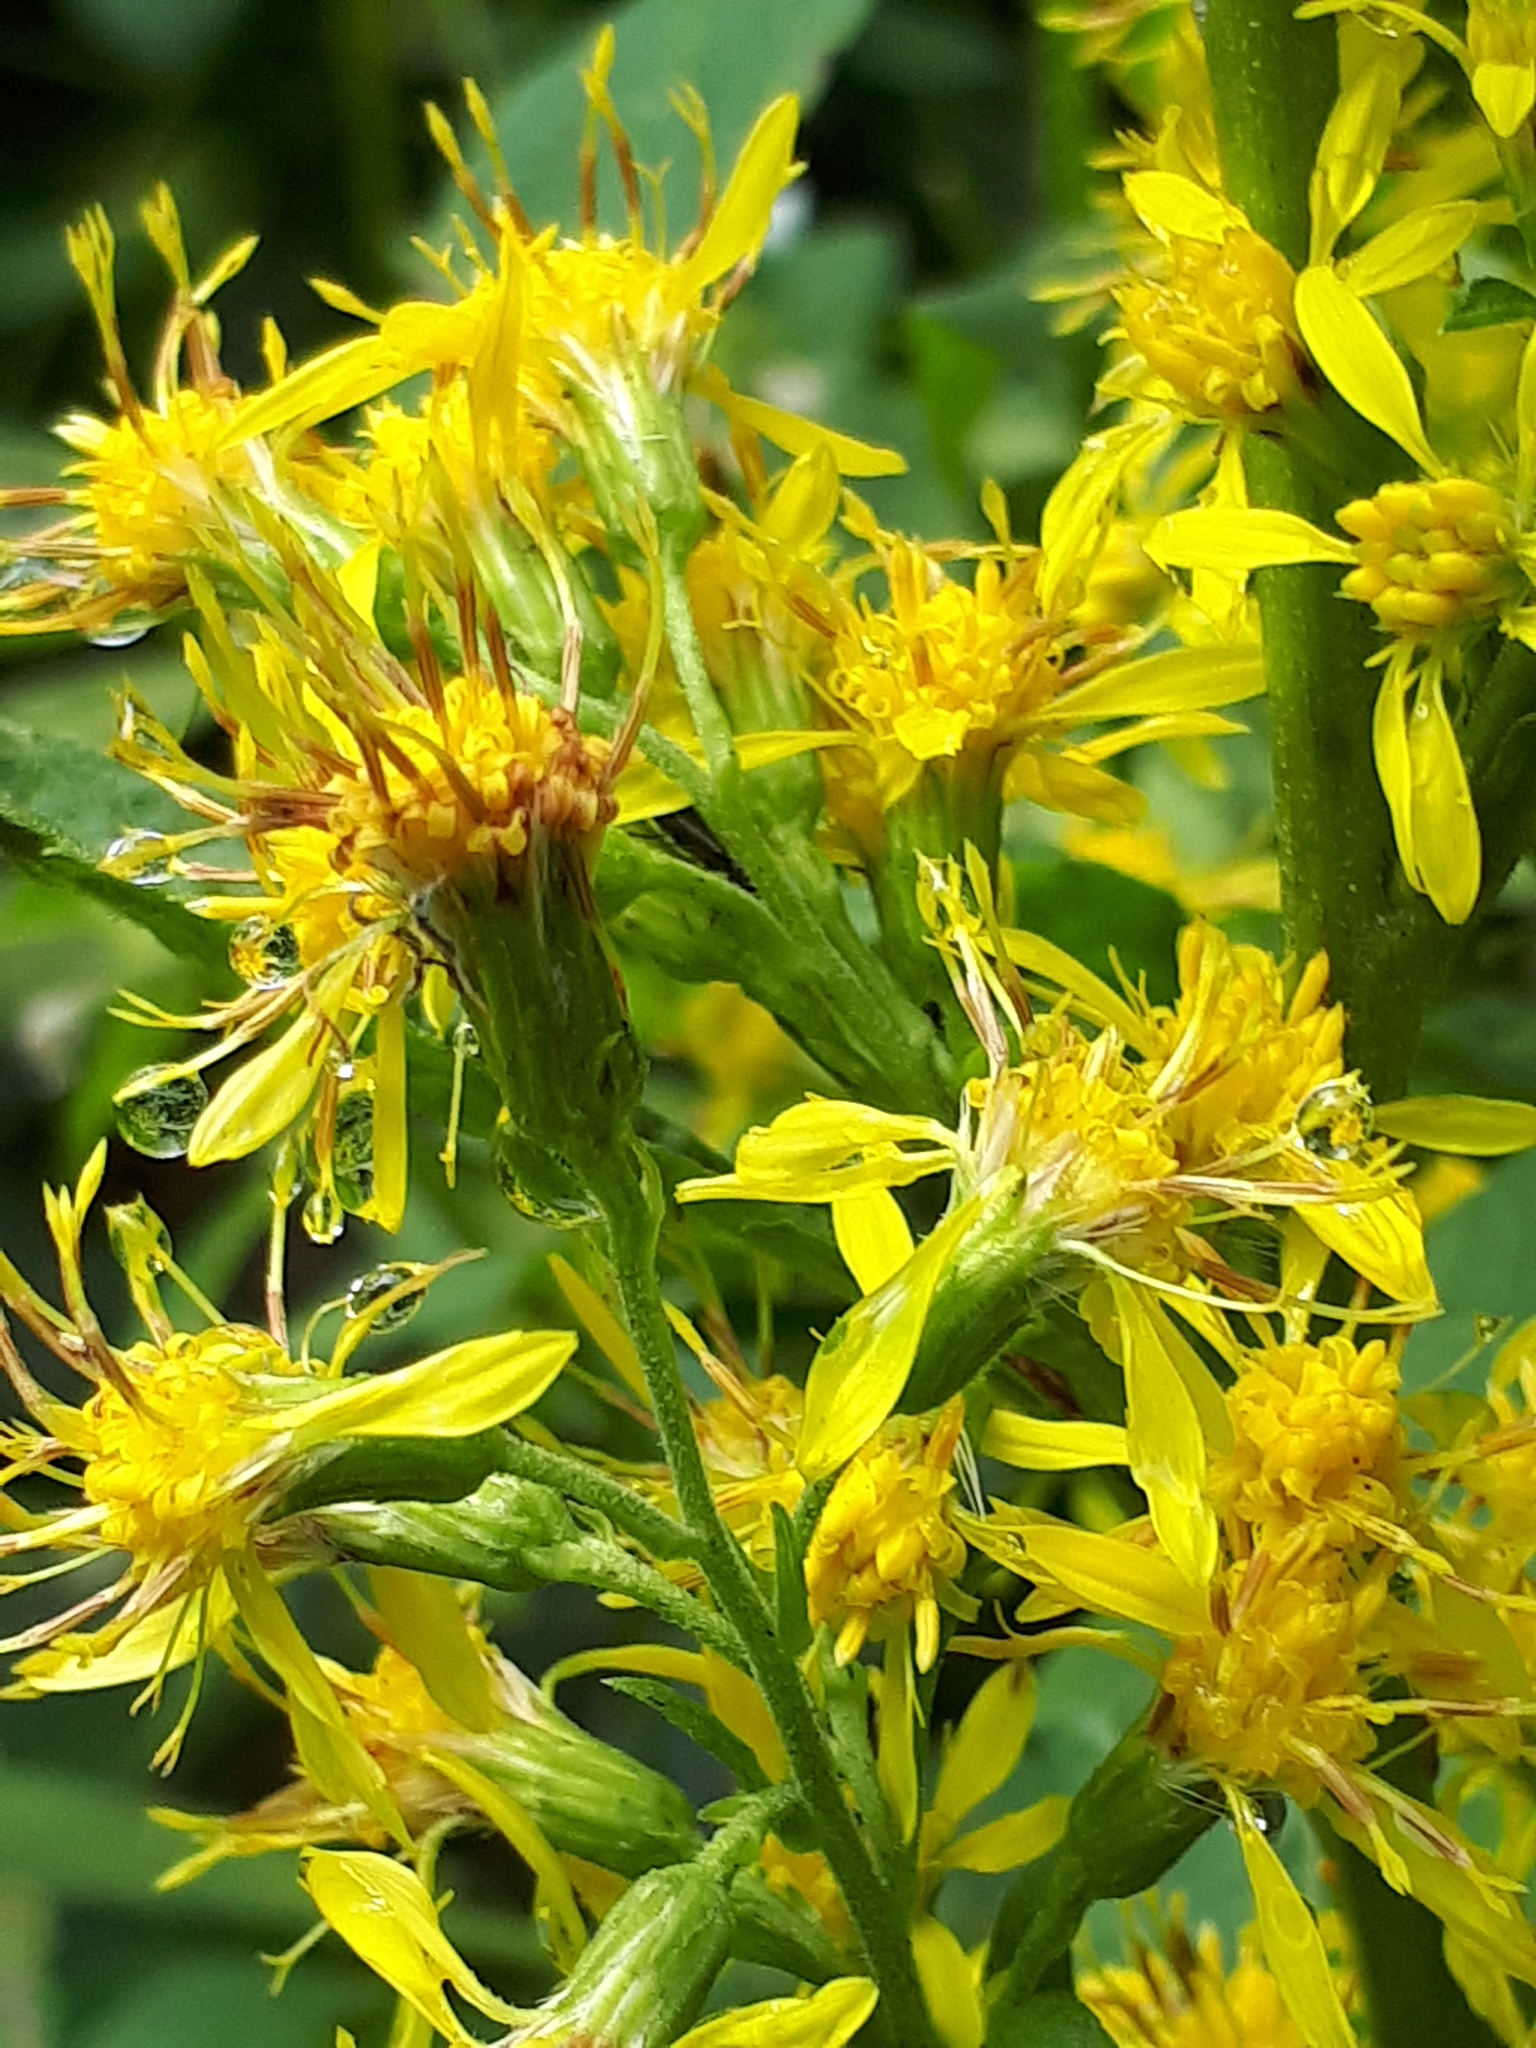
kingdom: Plantae
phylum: Tracheophyta
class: Magnoliopsida
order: Asterales
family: Asteraceae
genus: Solidago
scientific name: Solidago virgaurea
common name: Goldenrod
